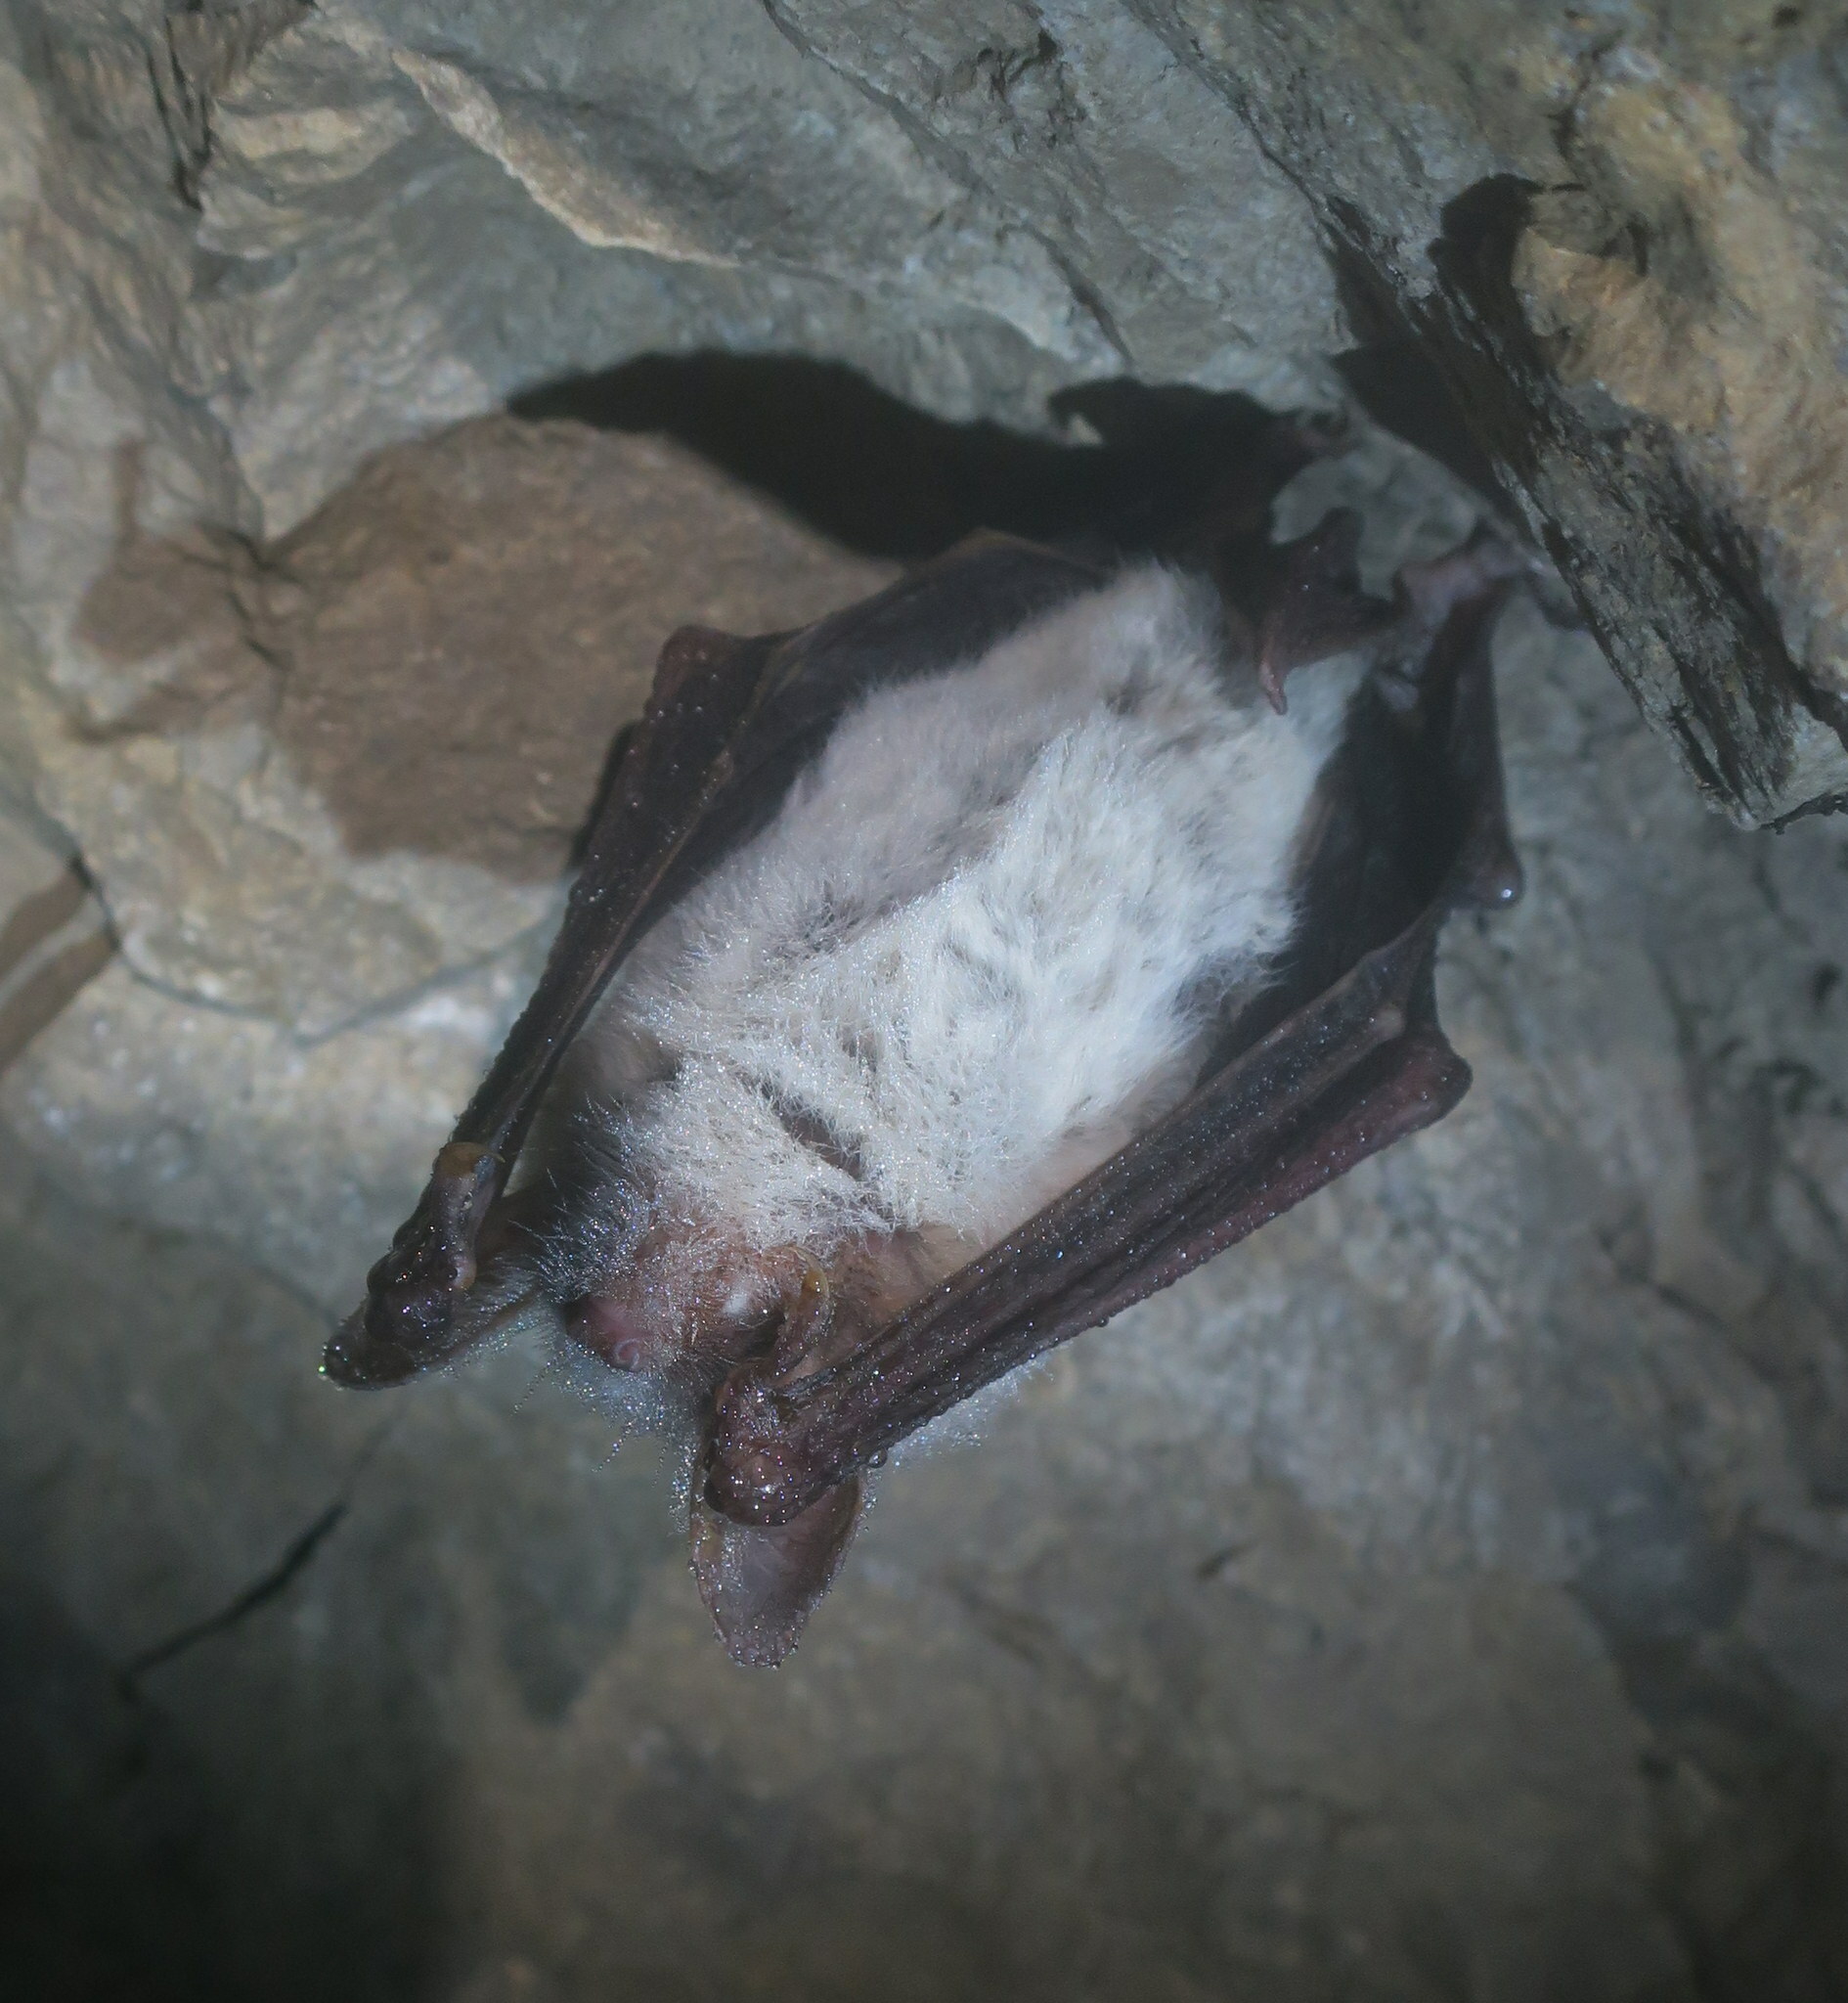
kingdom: Animalia
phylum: Chordata
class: Mammalia
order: Chiroptera
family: Vespertilionidae
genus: Myotis
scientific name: Myotis myotis
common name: Greater mouse-eared bat
